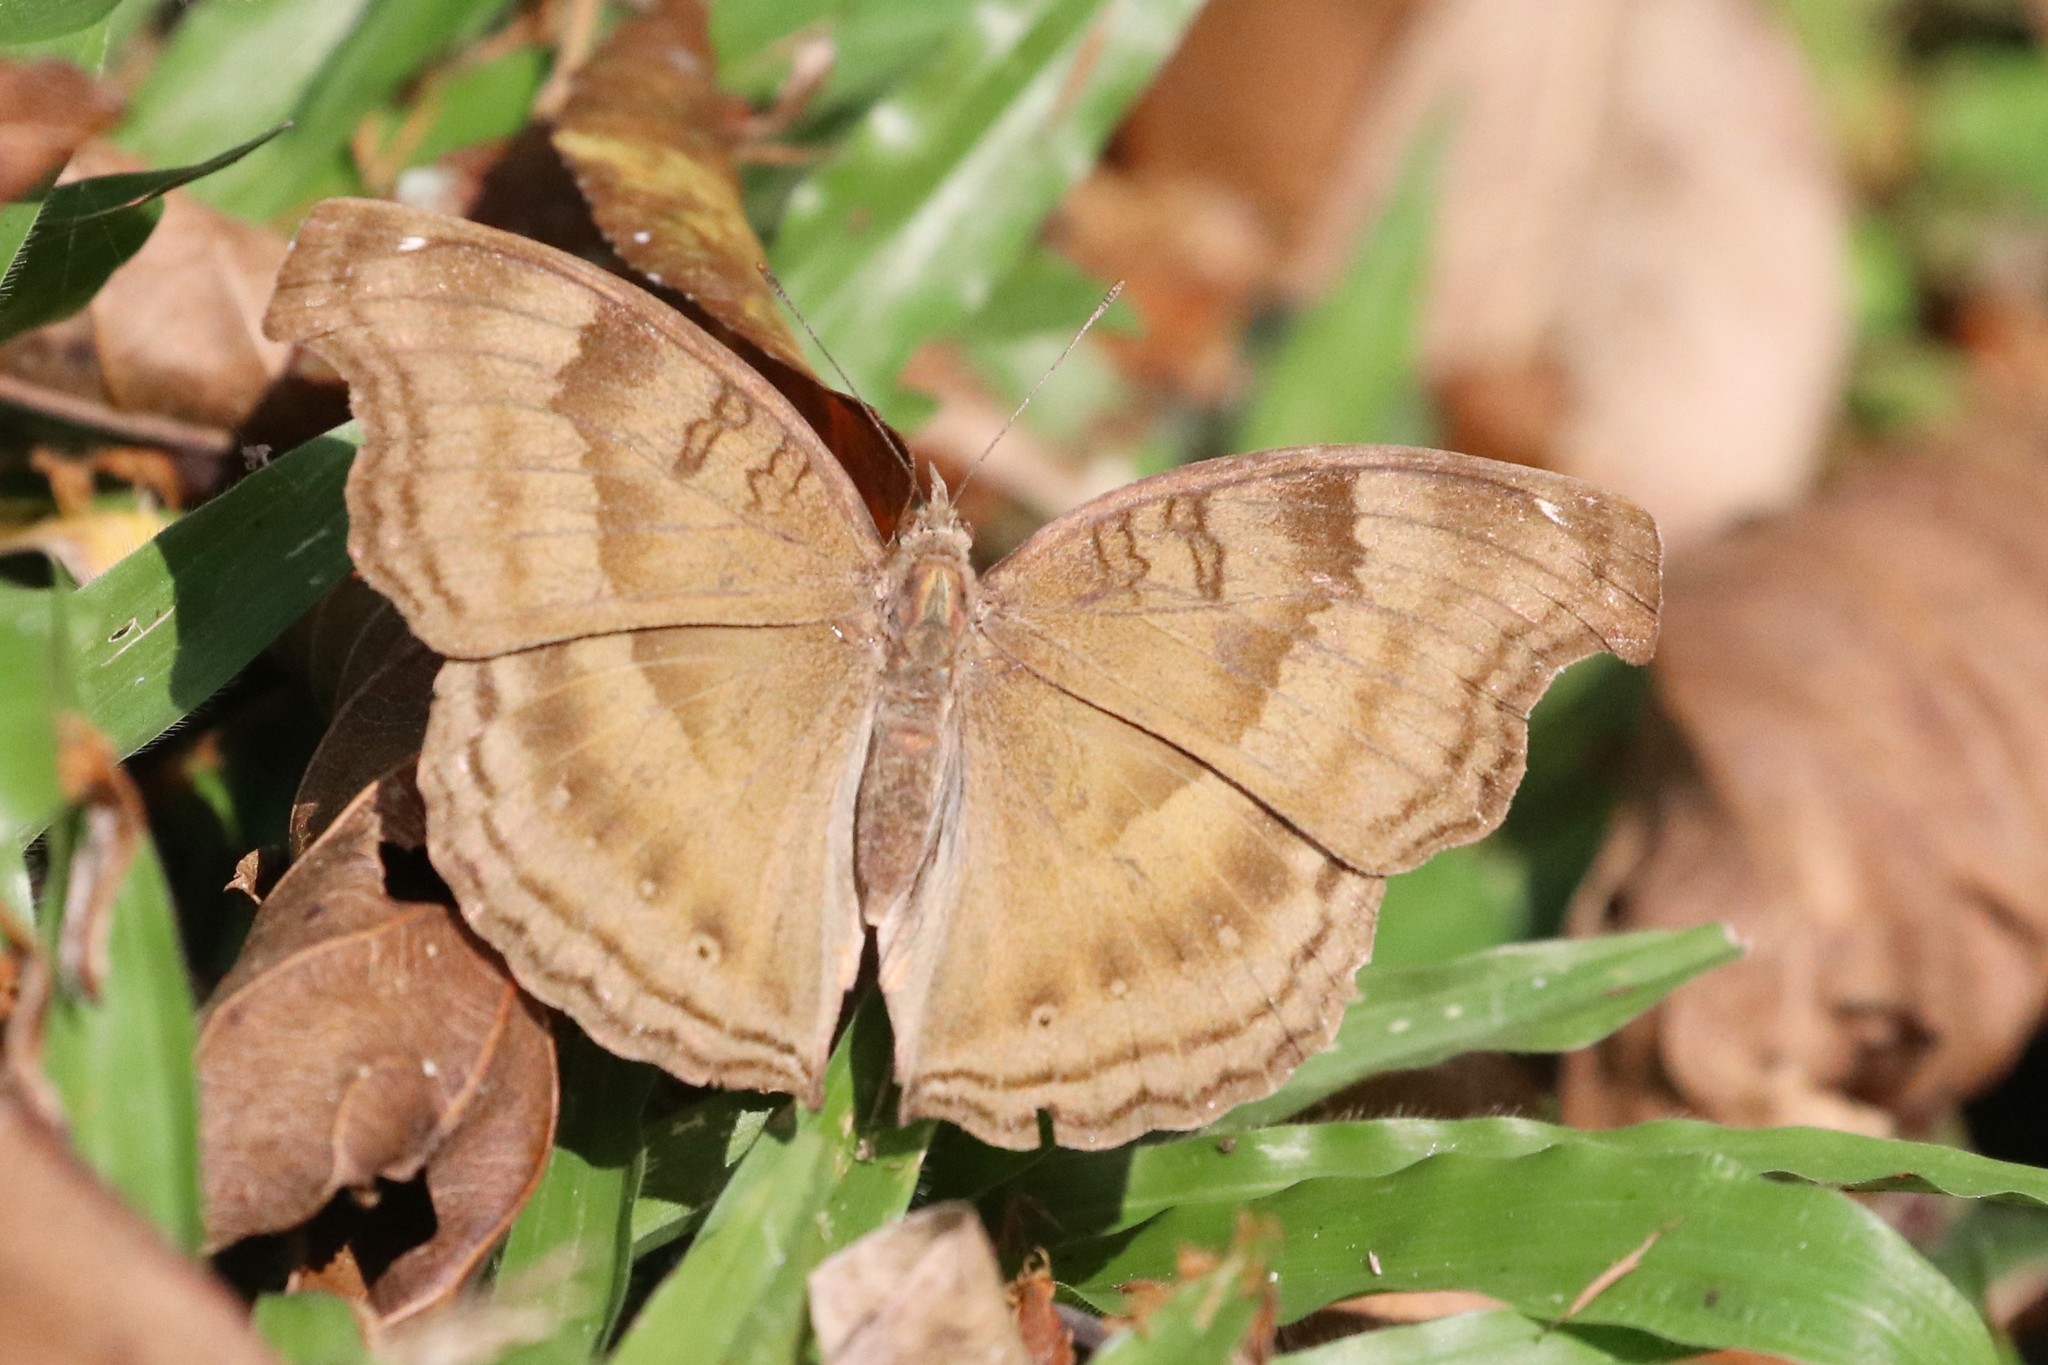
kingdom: Animalia
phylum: Arthropoda
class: Insecta
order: Lepidoptera
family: Nymphalidae
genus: Junonia
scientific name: Junonia iphita
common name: Chocolate pansy
